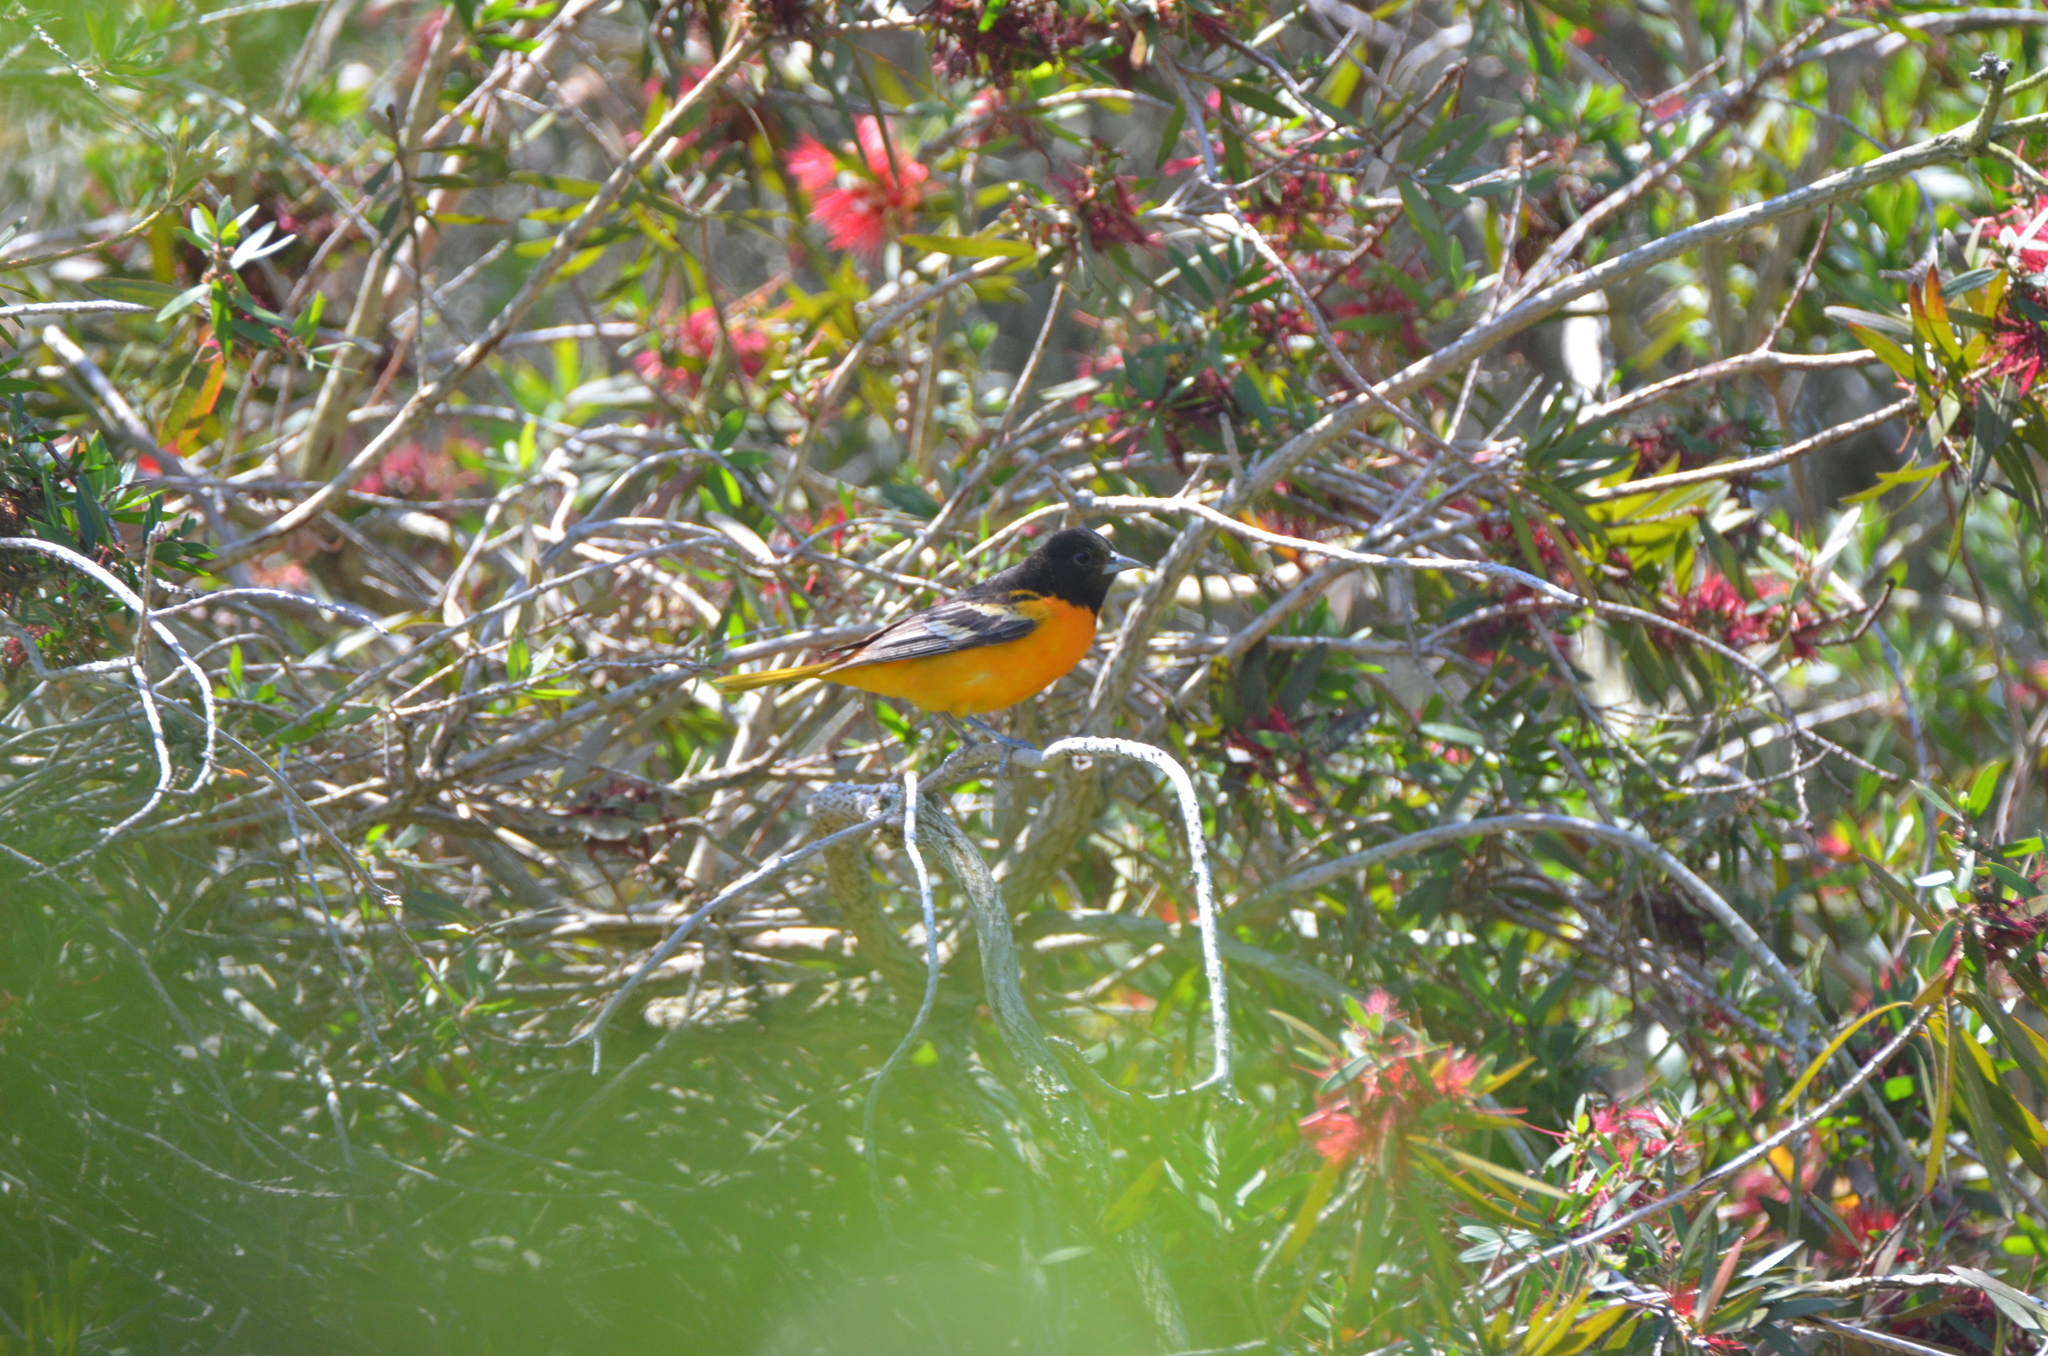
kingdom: Animalia
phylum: Chordata
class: Aves
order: Passeriformes
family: Icteridae
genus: Icterus
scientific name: Icterus galbula
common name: Baltimore oriole
